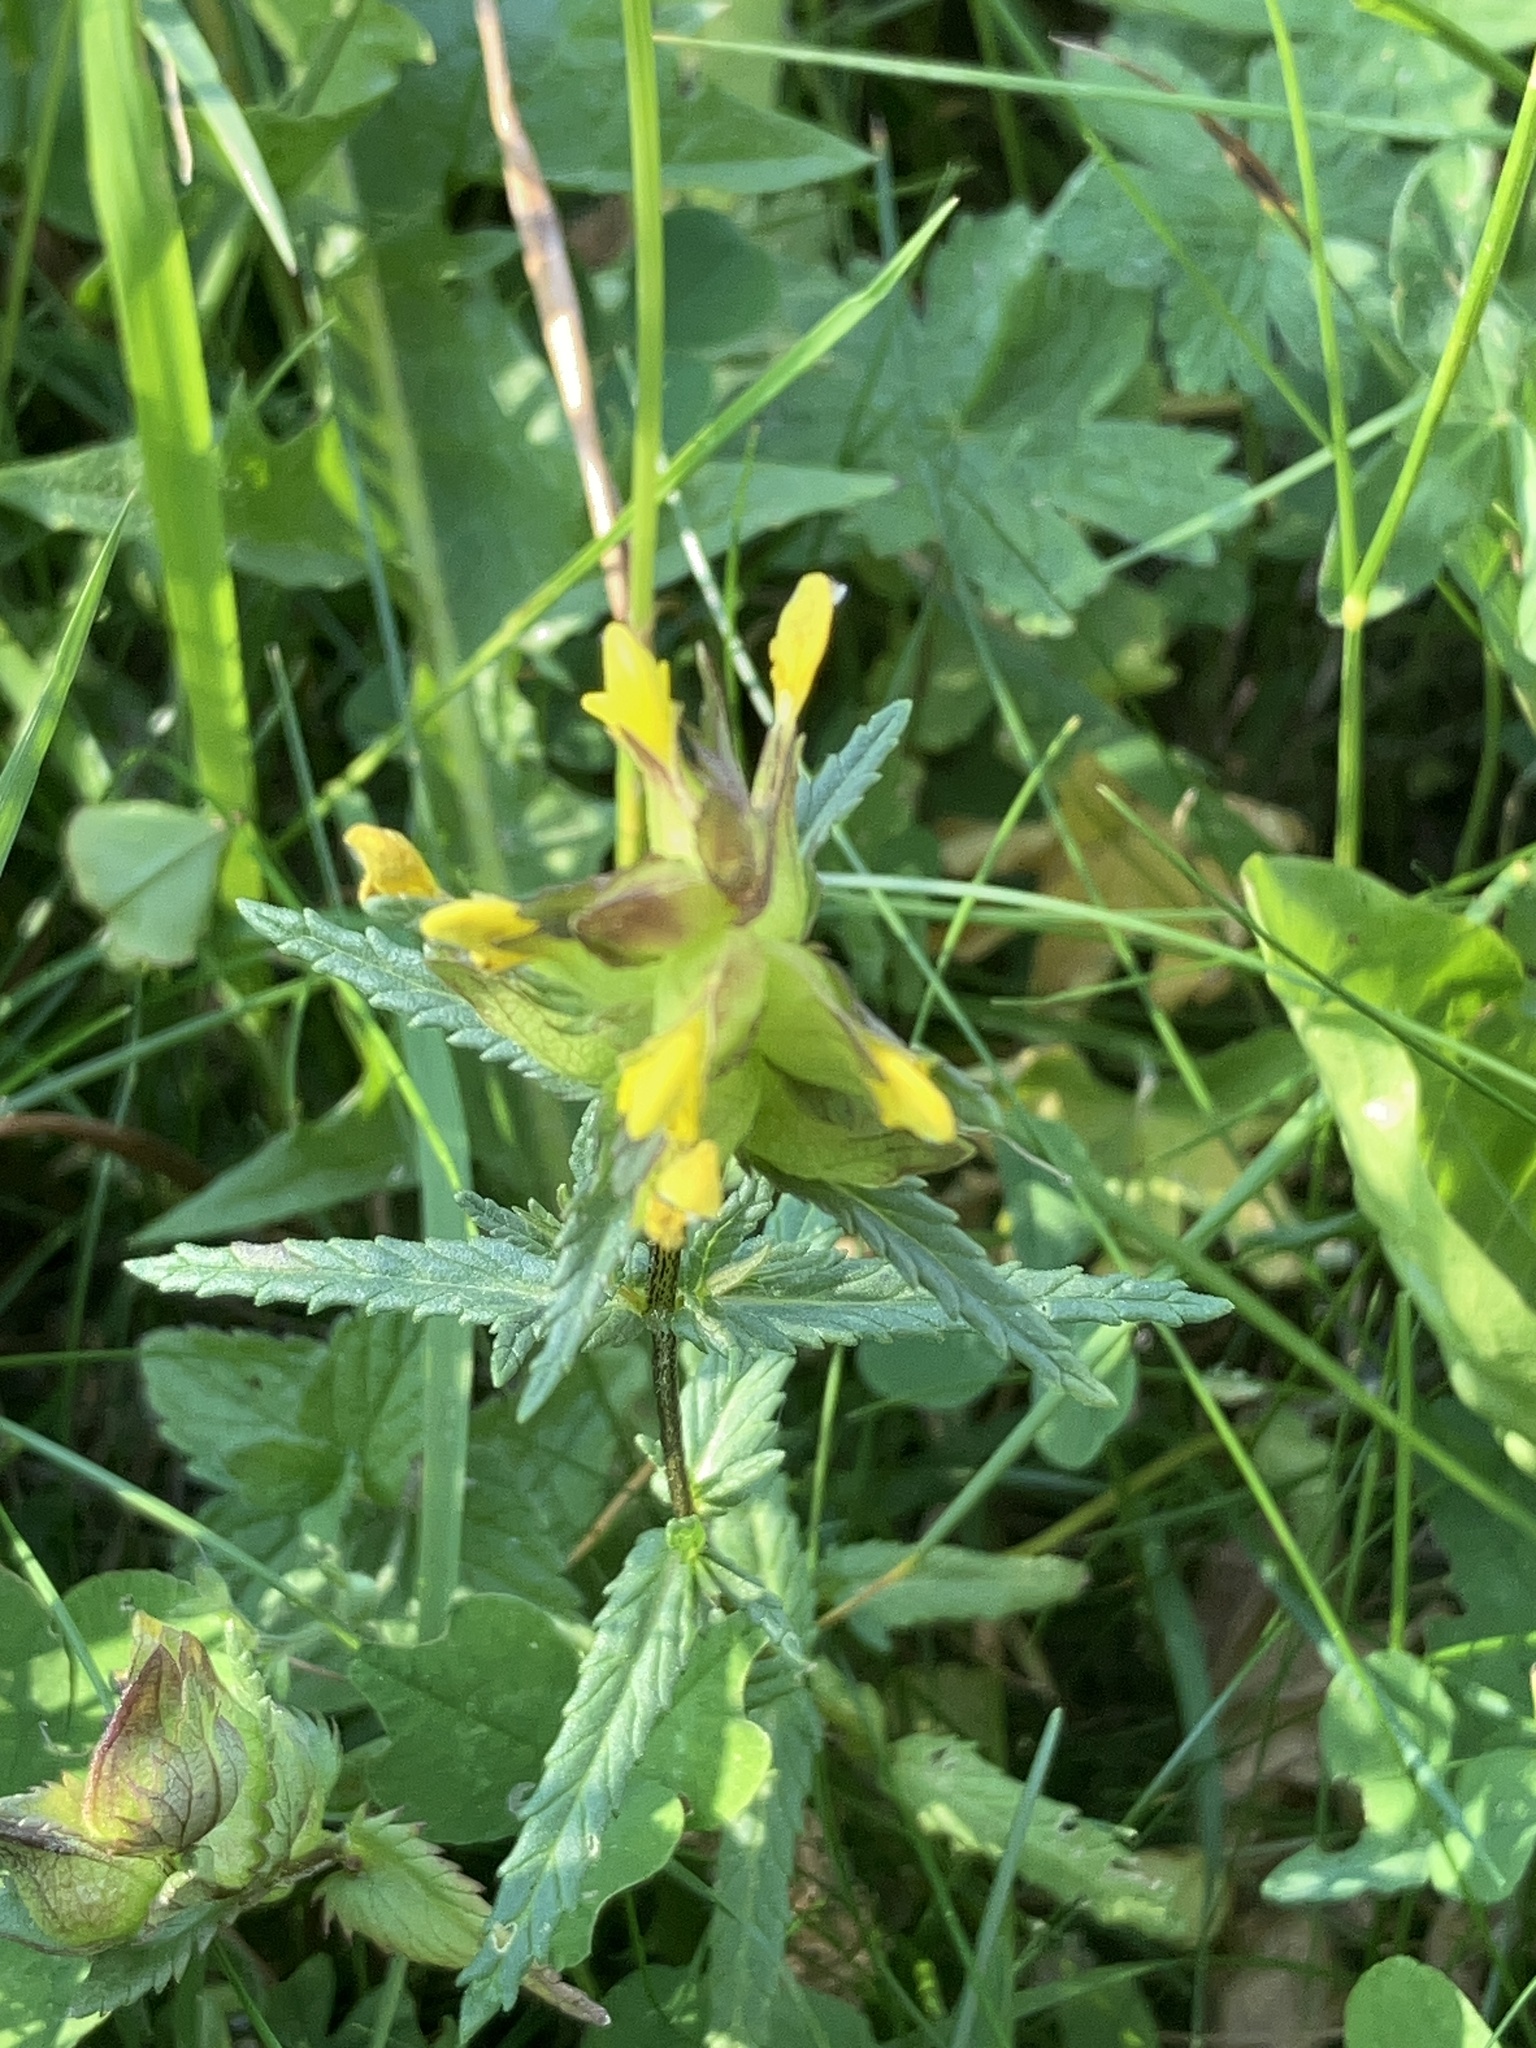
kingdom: Plantae
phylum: Tracheophyta
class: Magnoliopsida
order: Lamiales
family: Orobanchaceae
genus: Rhinanthus
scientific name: Rhinanthus minor
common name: Yellow-rattle
